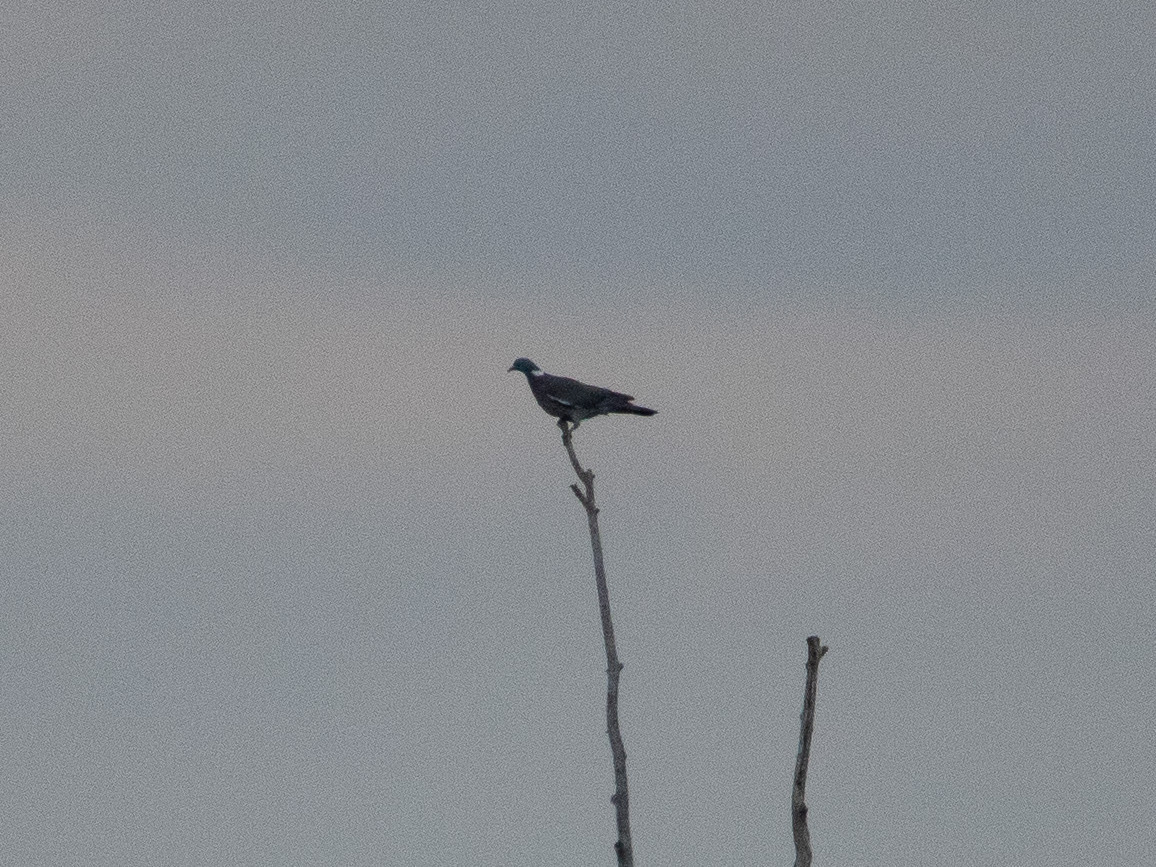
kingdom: Animalia
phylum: Chordata
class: Aves
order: Columbiformes
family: Columbidae
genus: Columba
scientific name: Columba palumbus
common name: Common wood pigeon
